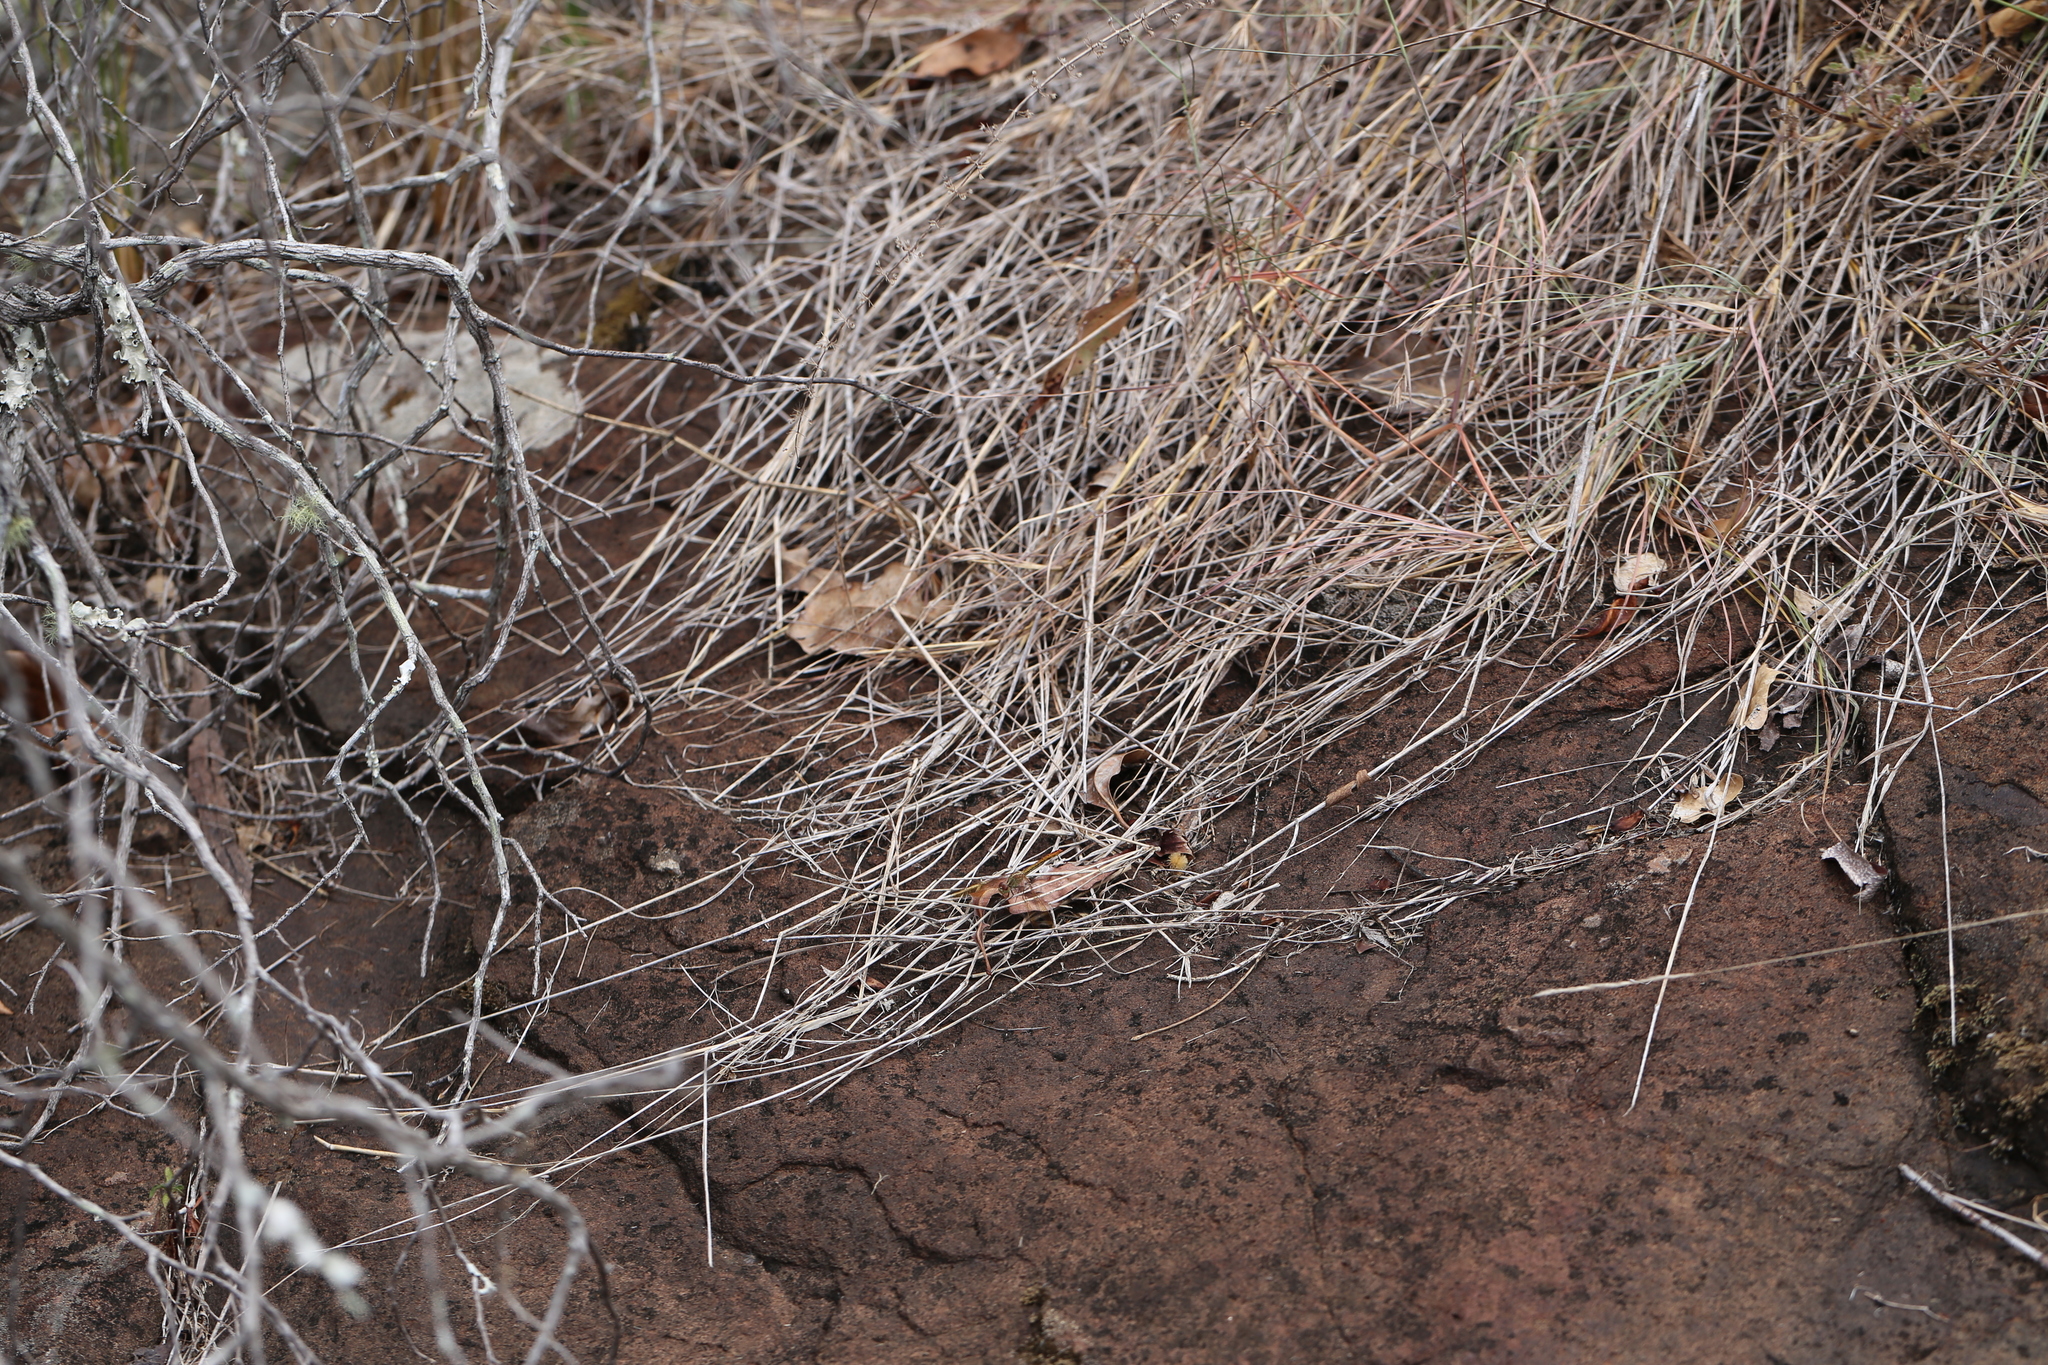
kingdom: Animalia
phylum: Arthropoda
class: Insecta
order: Odonata
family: Libellulidae
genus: Diplacodes
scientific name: Diplacodes haematodes
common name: Scarlet percher
